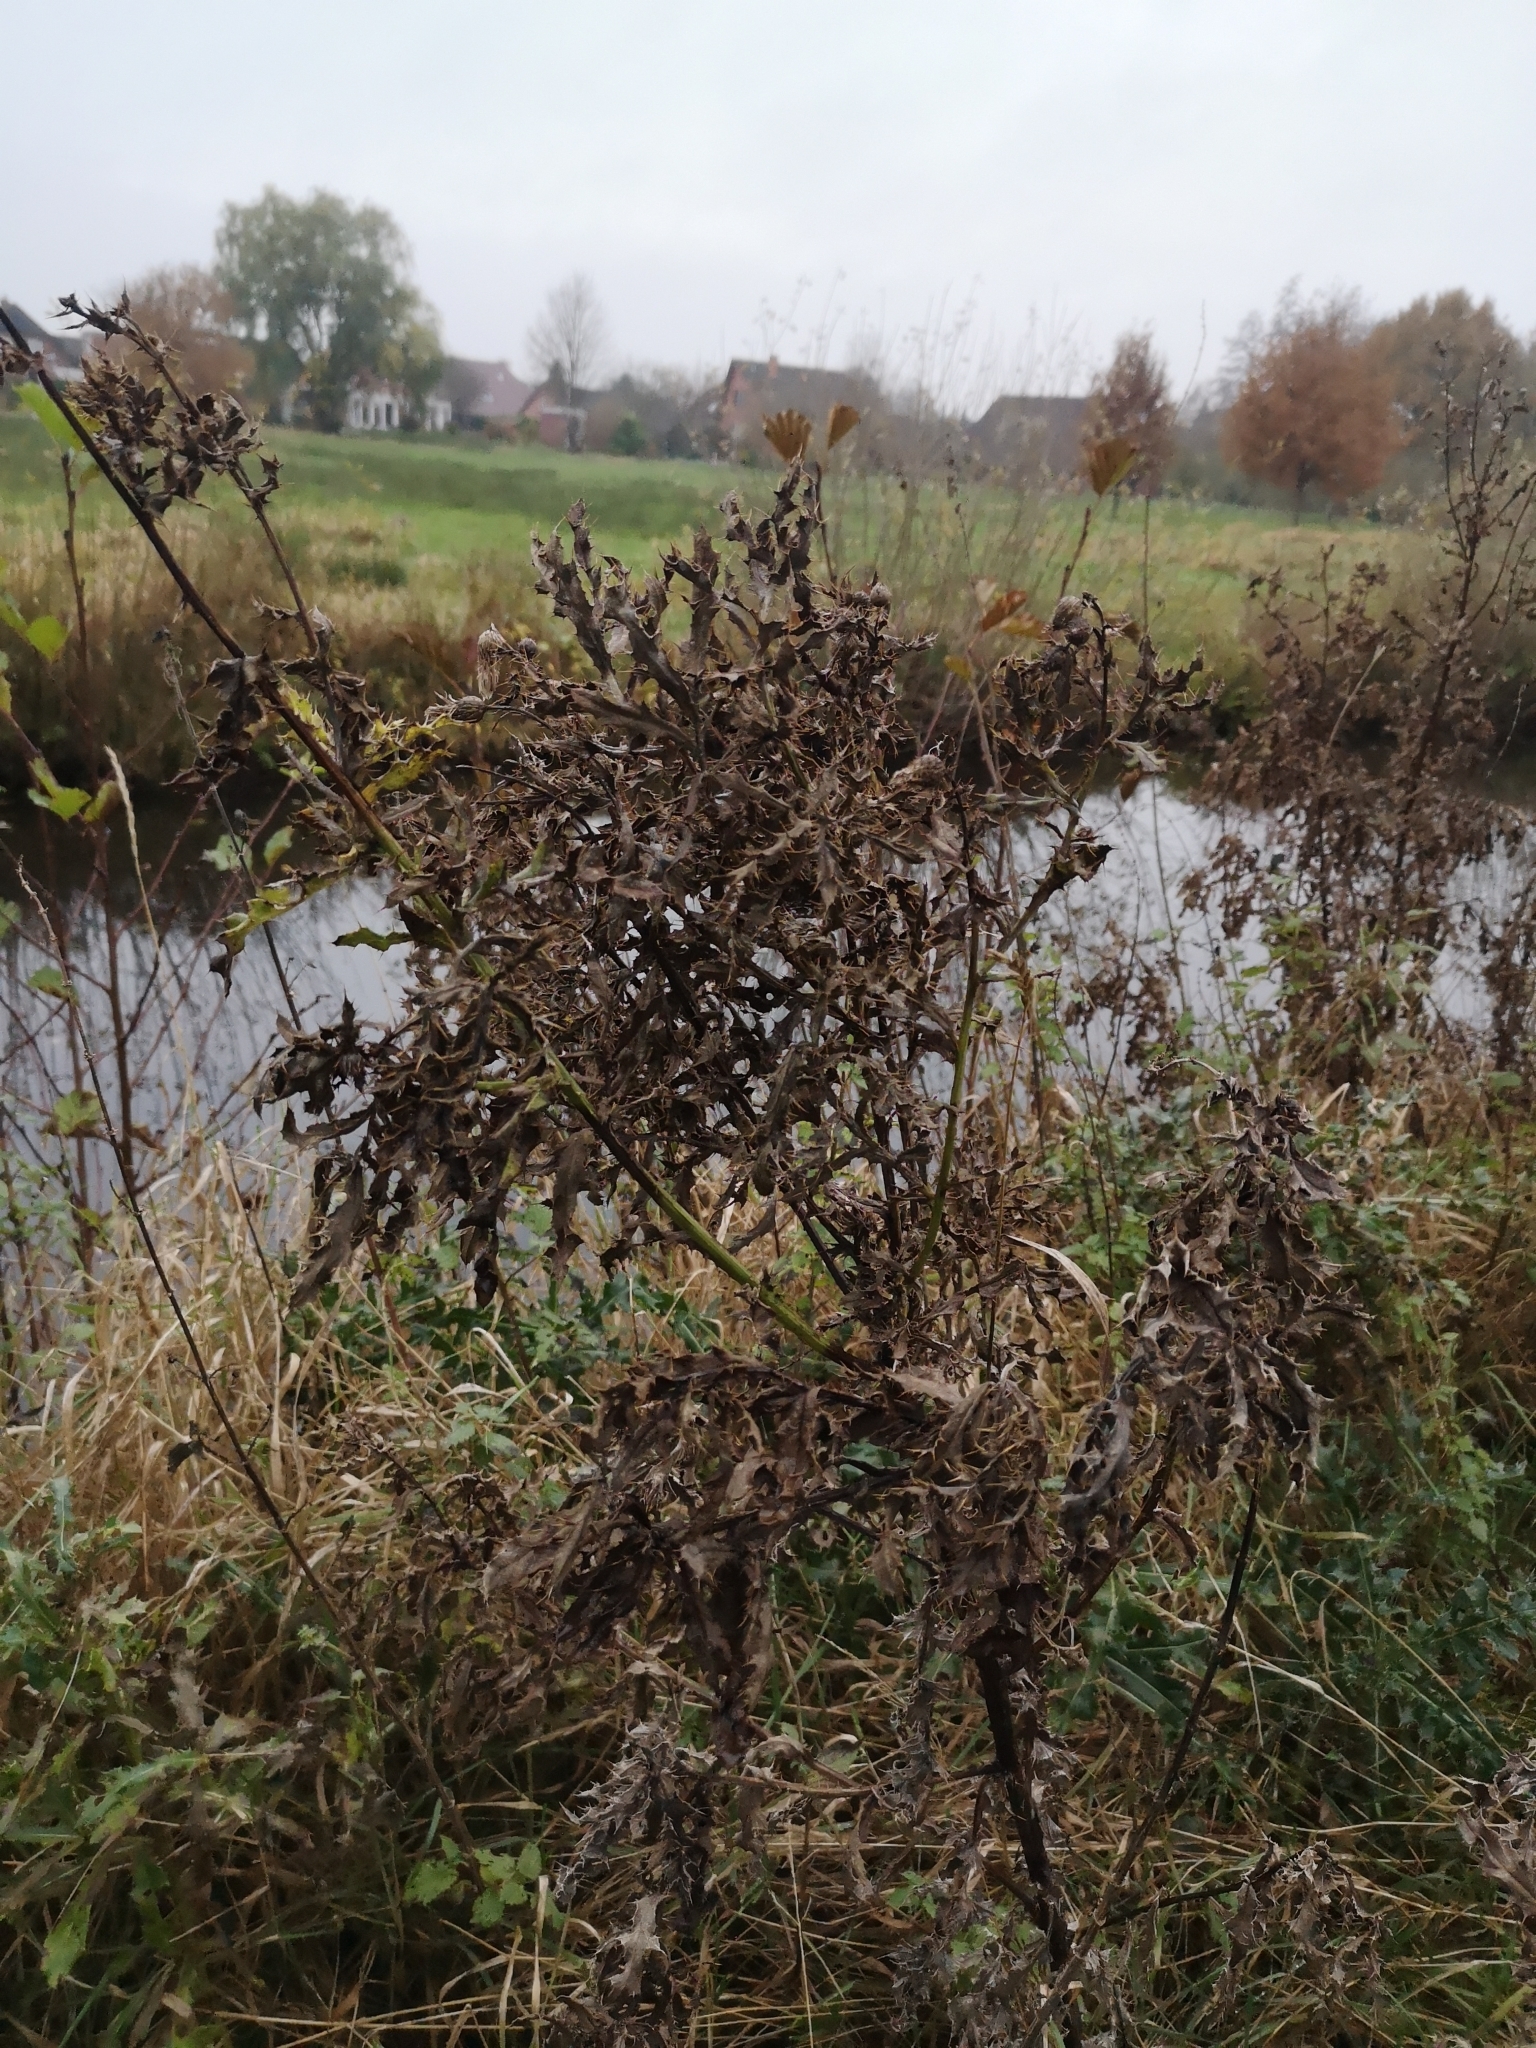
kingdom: Plantae
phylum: Tracheophyta
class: Magnoliopsida
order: Asterales
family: Asteraceae
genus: Cirsium
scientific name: Cirsium arvense
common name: Creeping thistle
